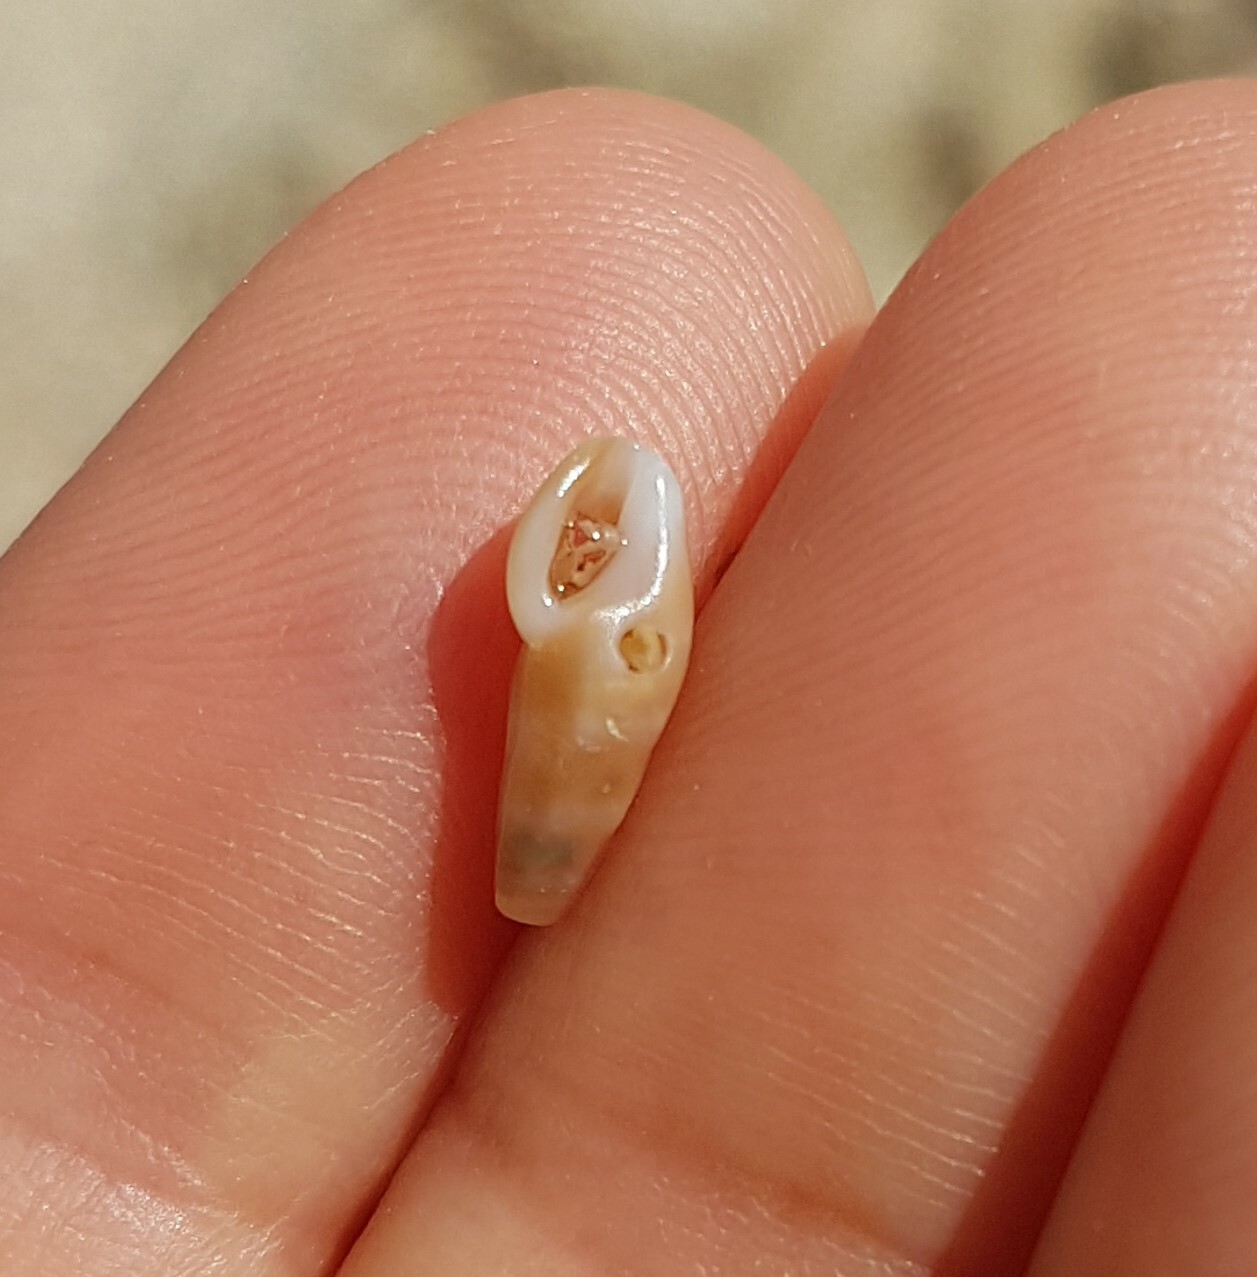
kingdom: Animalia
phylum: Mollusca
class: Gastropoda
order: Neogastropoda
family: Horaiclavidae
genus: Haedropleura
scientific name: Haedropleura septangularis
